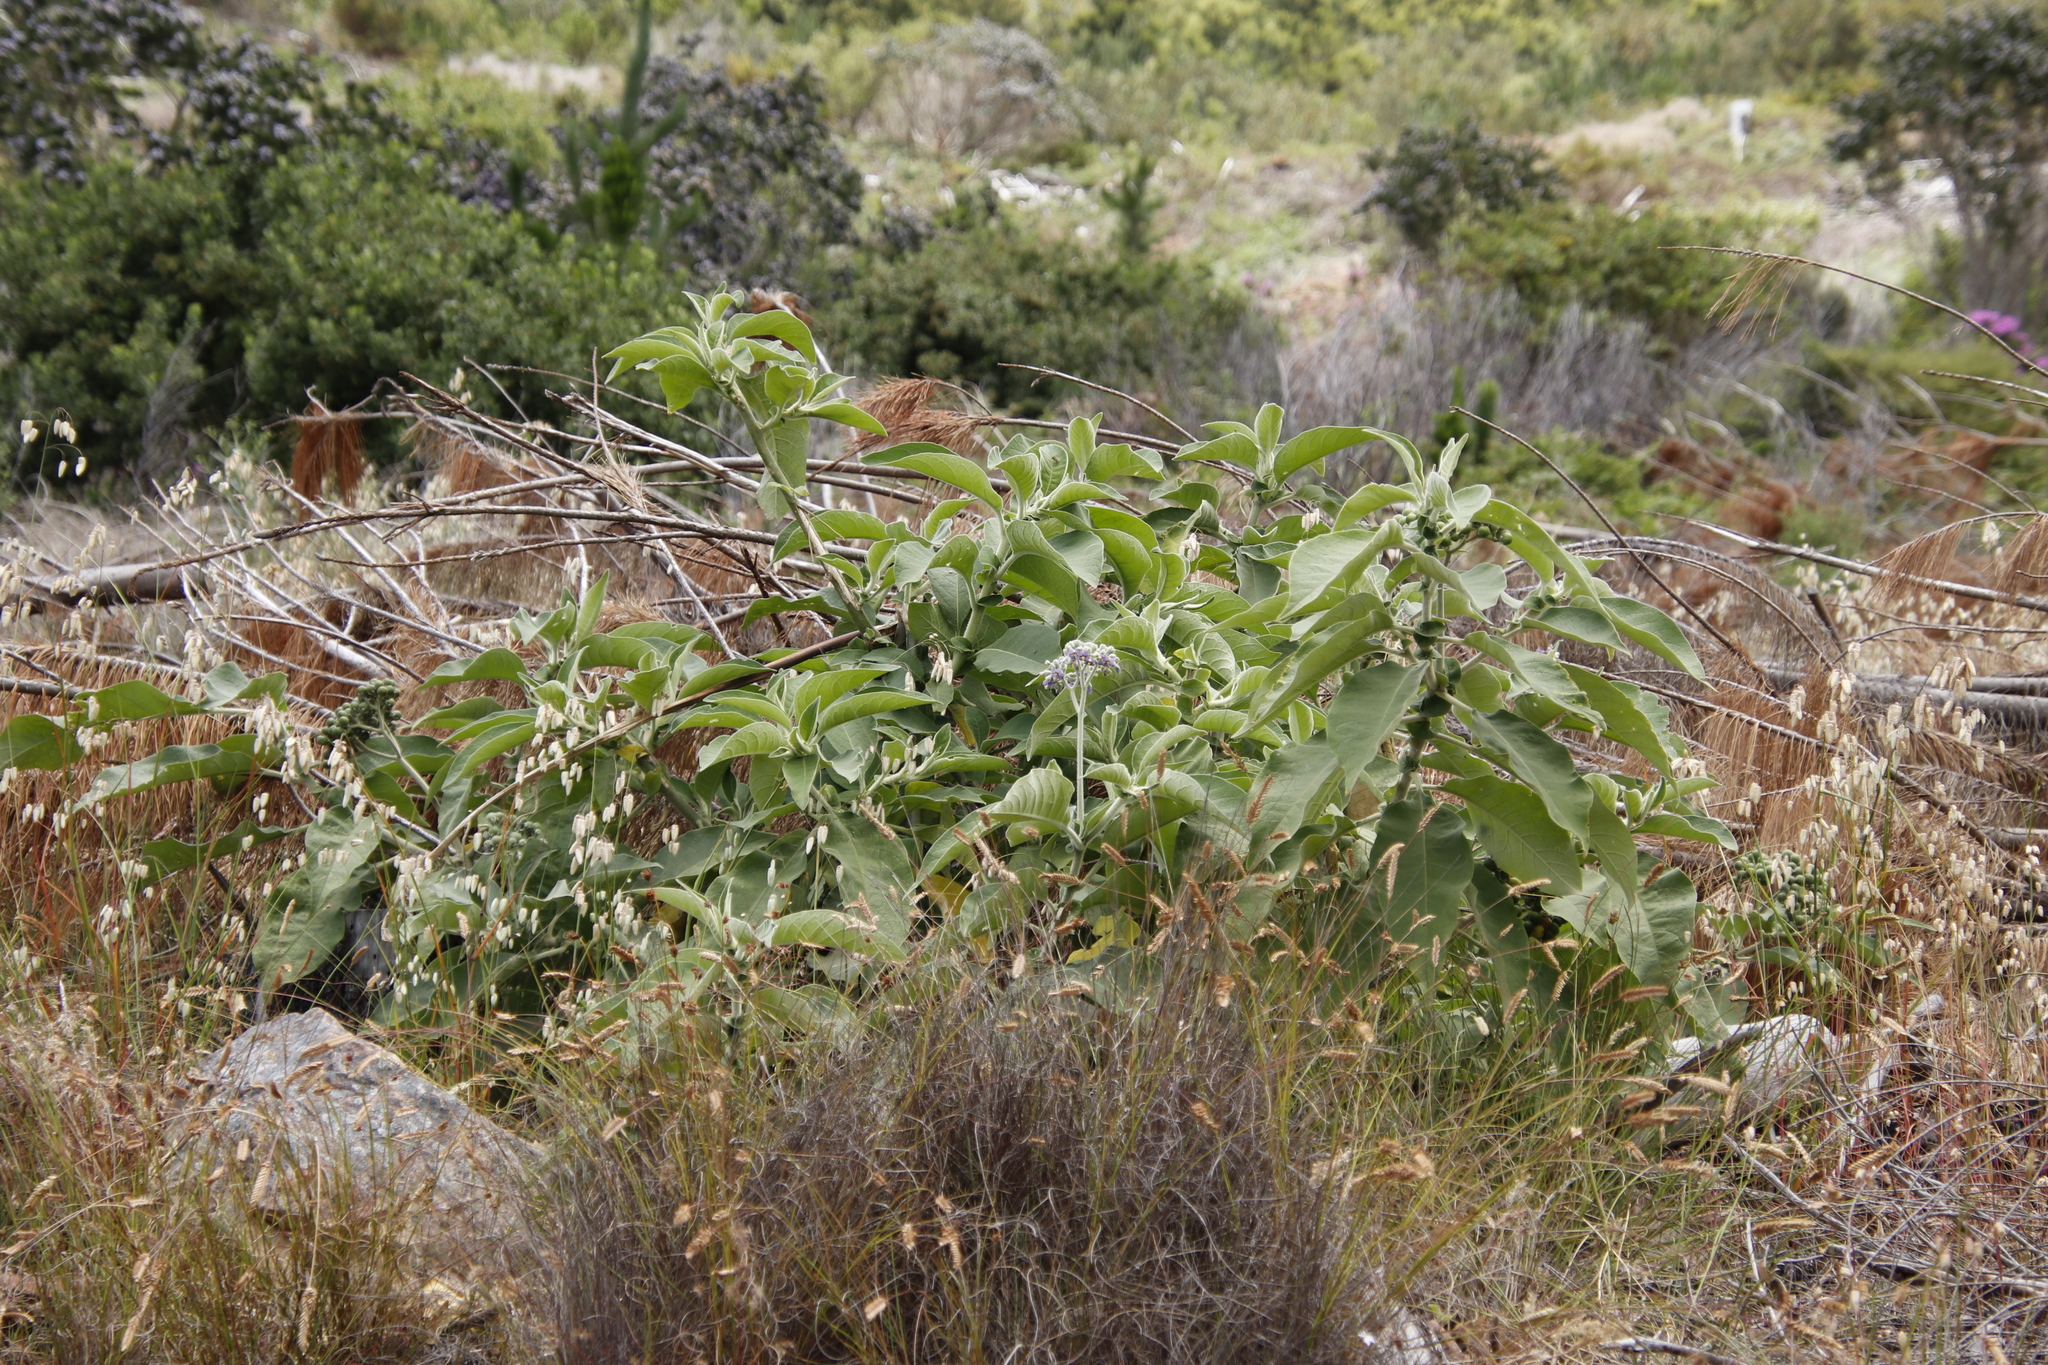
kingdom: Plantae
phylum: Tracheophyta
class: Magnoliopsida
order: Solanales
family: Solanaceae
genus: Solanum
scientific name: Solanum mauritianum
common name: Earleaf nightshade
